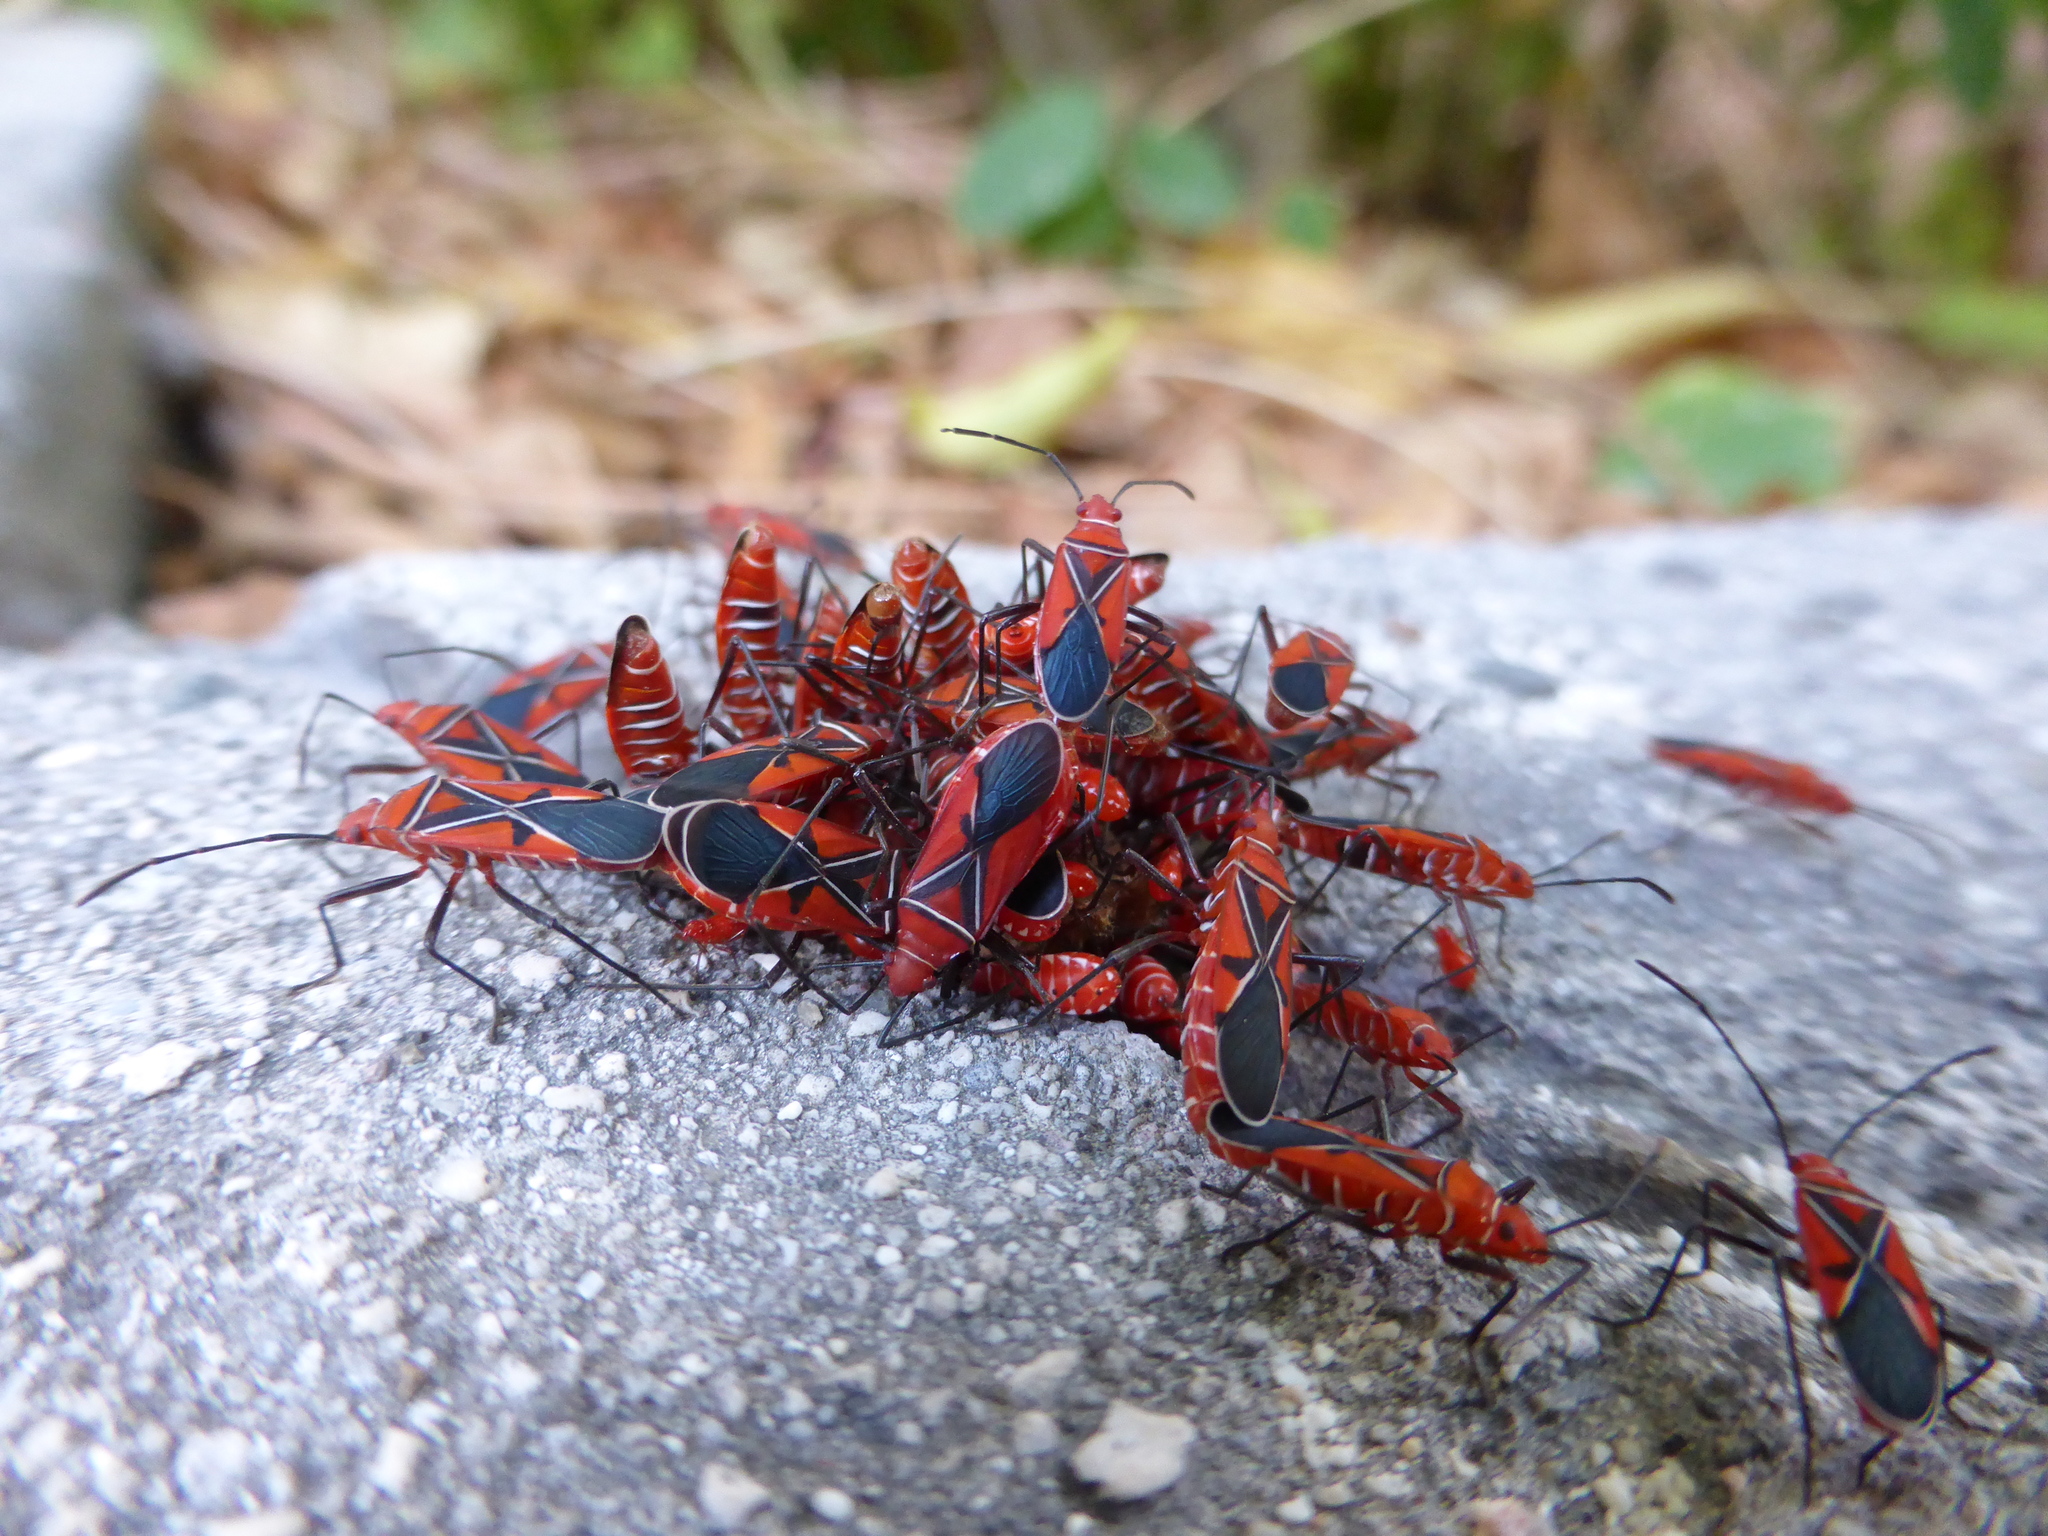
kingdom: Animalia
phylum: Arthropoda
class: Insecta
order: Hemiptera
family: Pyrrhocoridae
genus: Dysdercus
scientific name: Dysdercus andreae
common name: St. andrew's cotton stainer
